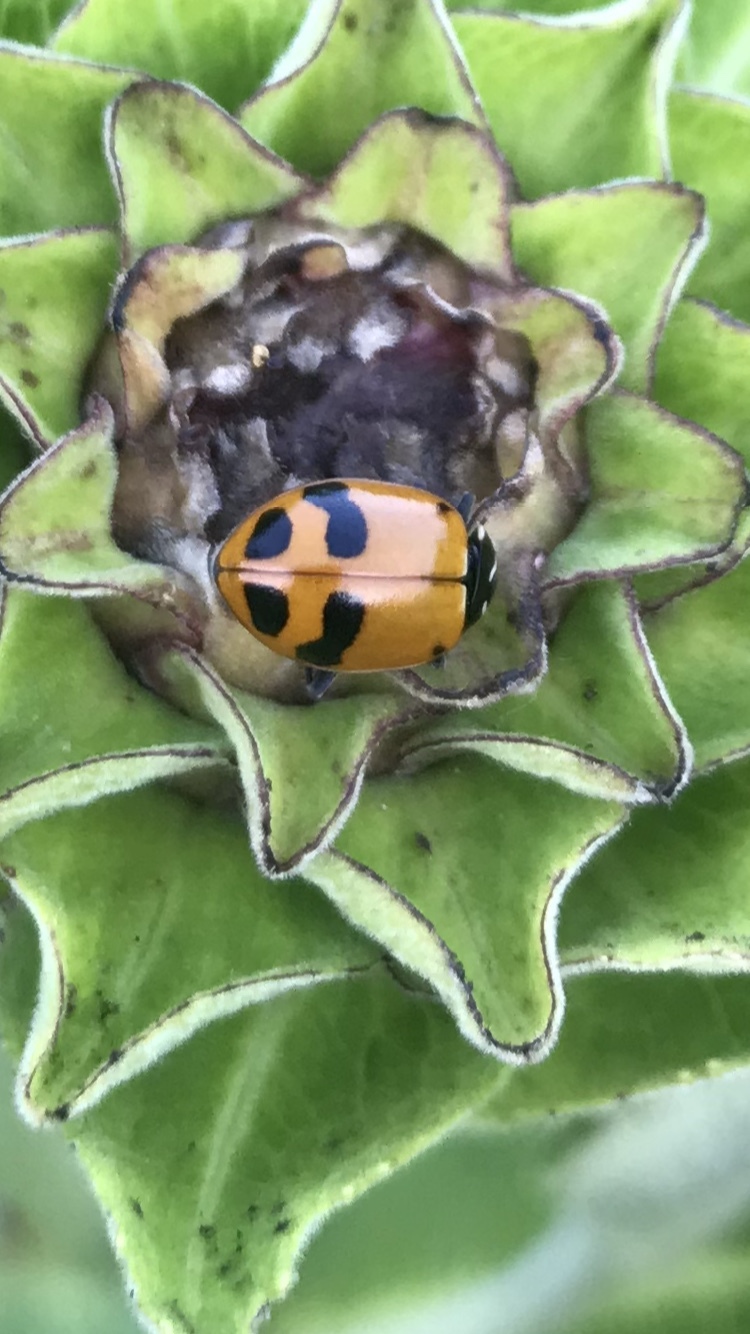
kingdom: Animalia
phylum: Arthropoda
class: Insecta
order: Coleoptera
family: Coccinellidae
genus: Hippodamia
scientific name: Hippodamia glacialis
